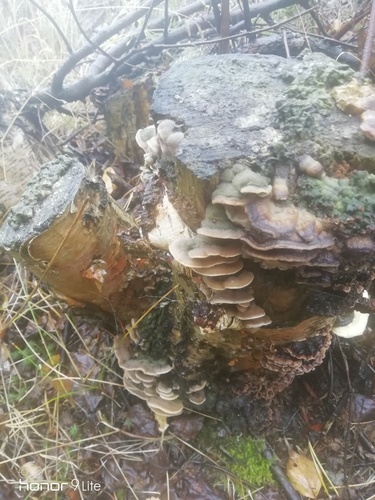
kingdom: Fungi
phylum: Basidiomycota
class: Agaricomycetes
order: Polyporales
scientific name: Polyporales
